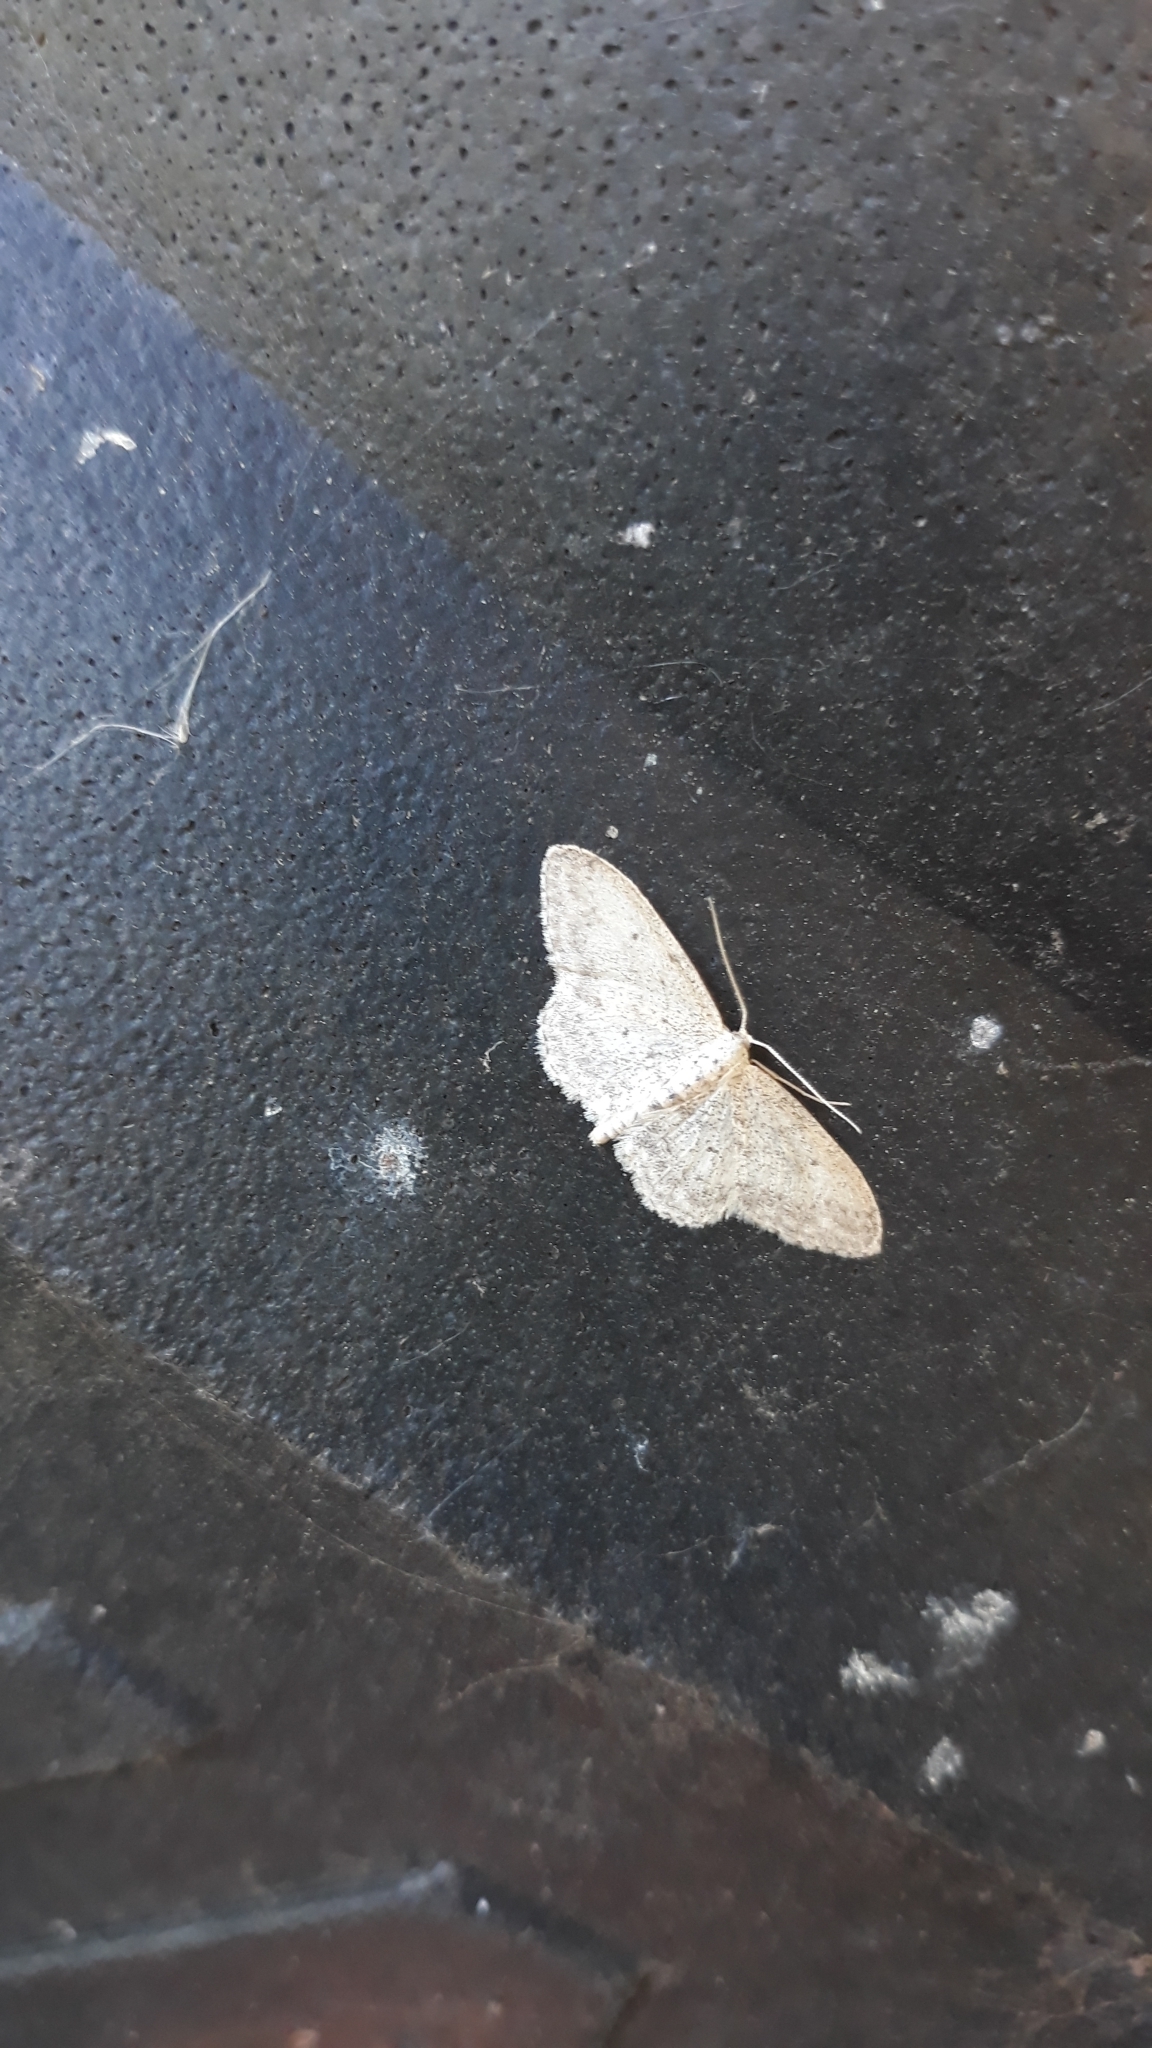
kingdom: Animalia
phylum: Arthropoda
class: Insecta
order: Lepidoptera
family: Geometridae
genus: Idaea
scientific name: Idaea seriata
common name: Small dusty wave
